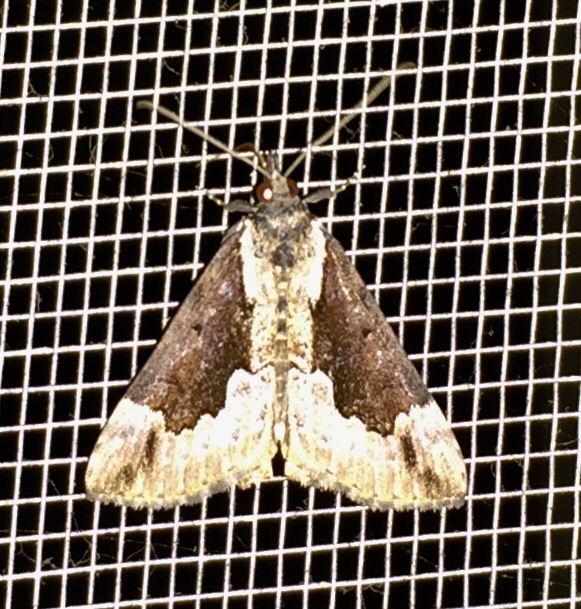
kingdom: Animalia
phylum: Arthropoda
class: Insecta
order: Lepidoptera
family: Erebidae
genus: Hypena
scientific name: Hypena baltimoralis
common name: Baltimore snout
